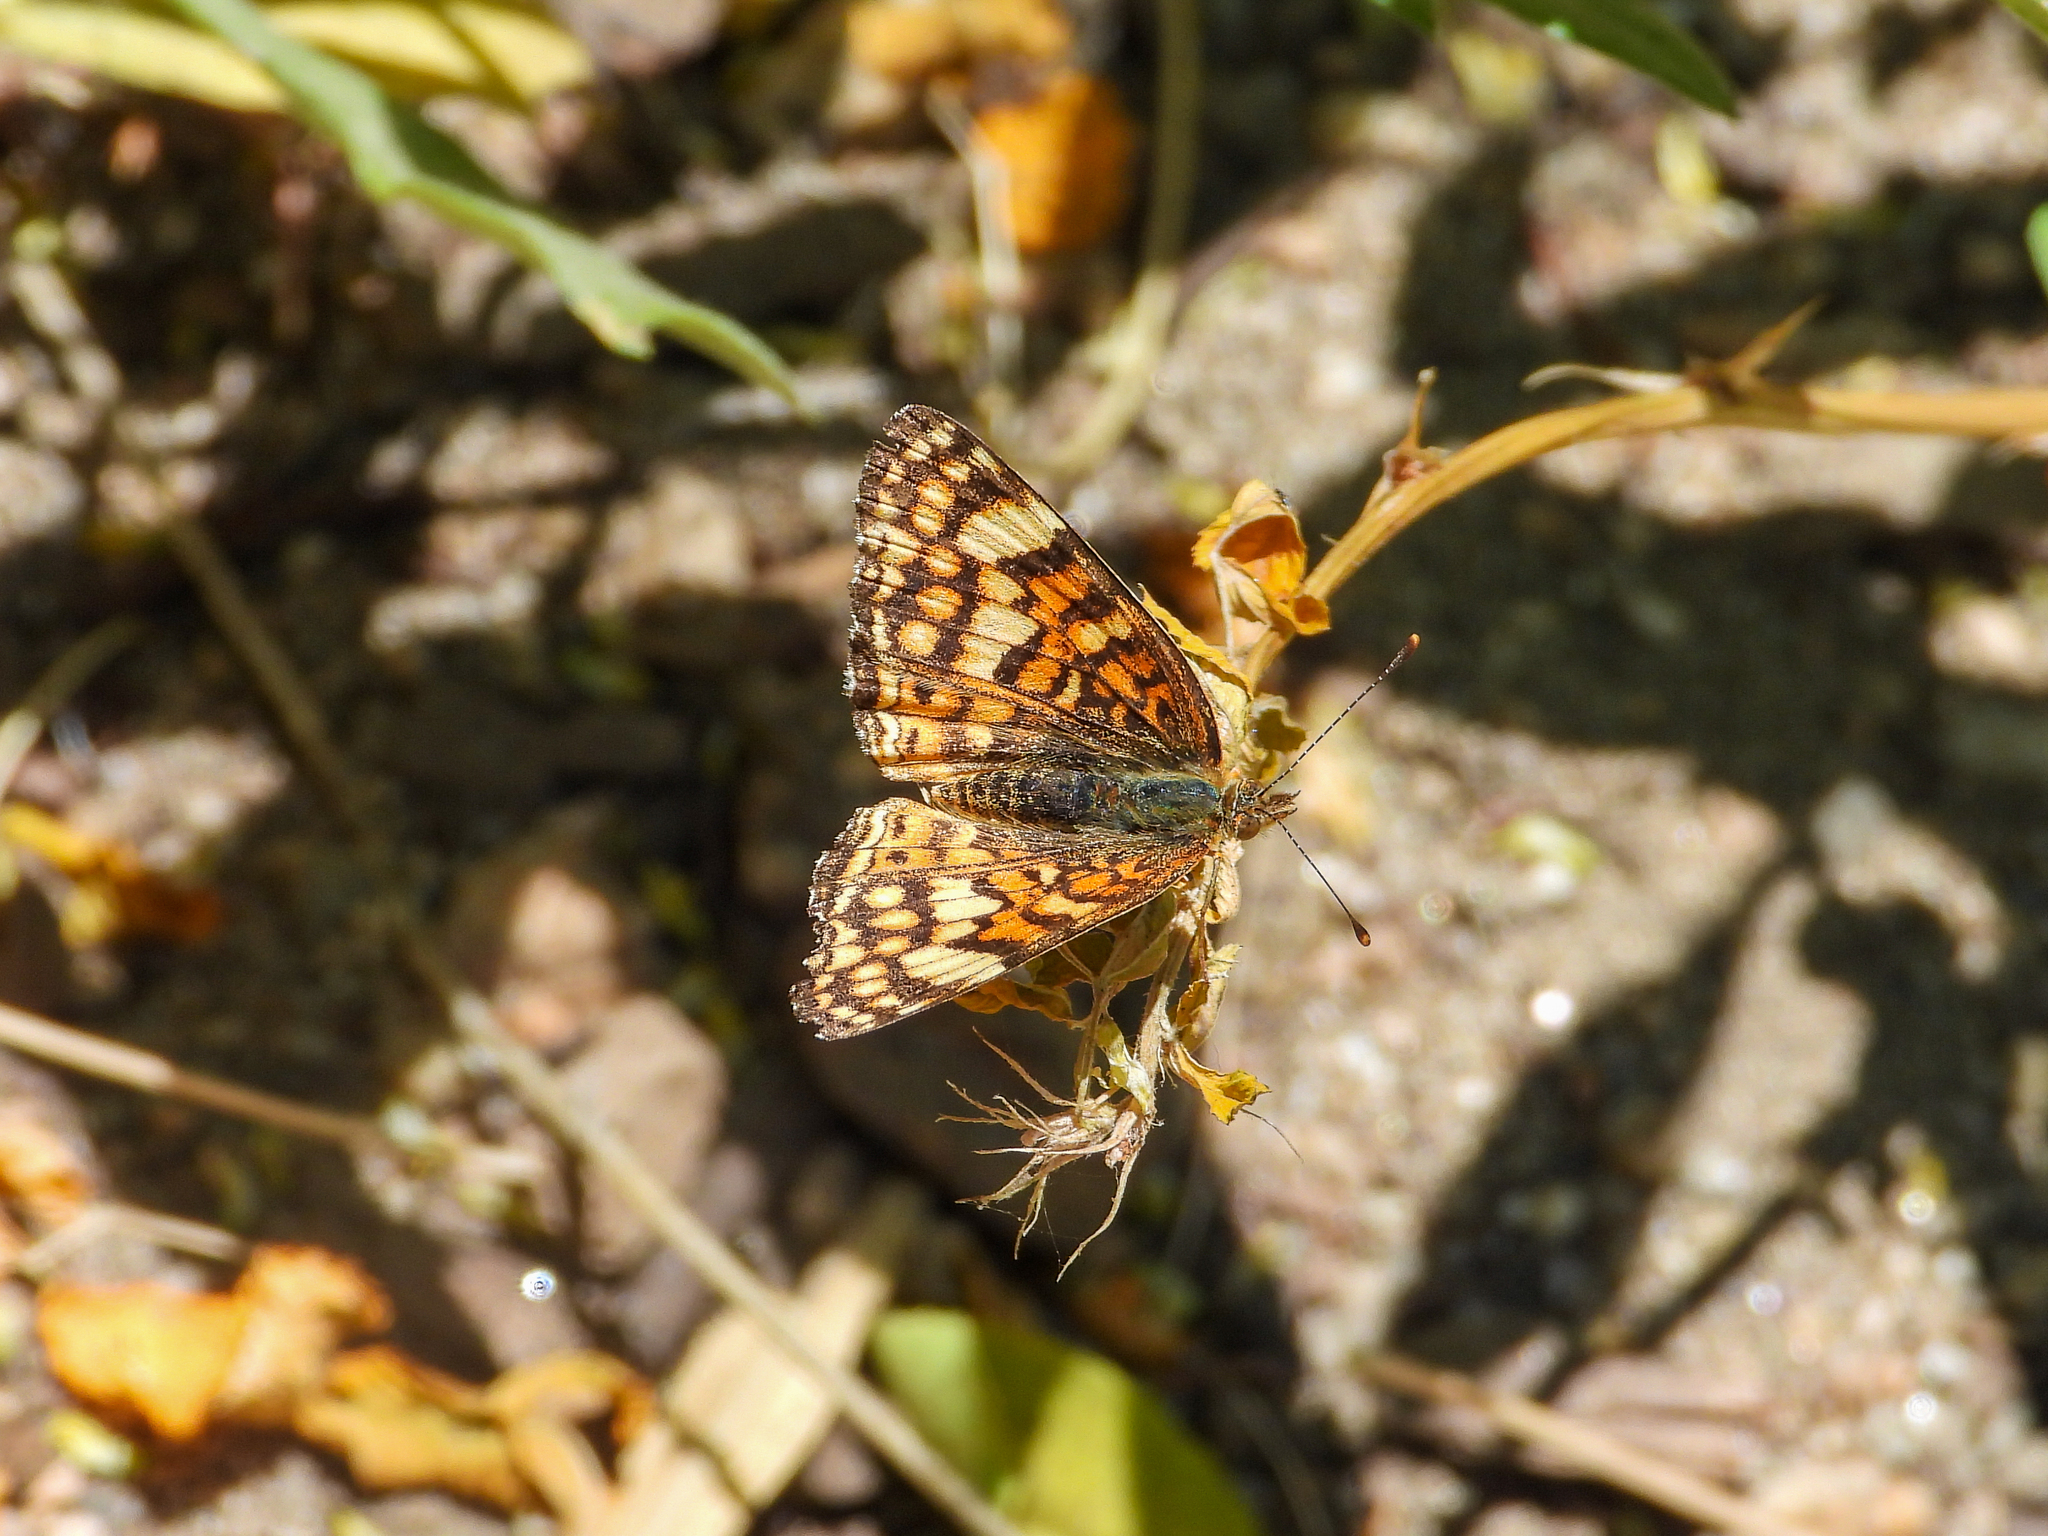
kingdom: Animalia
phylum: Arthropoda
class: Insecta
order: Lepidoptera
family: Nymphalidae
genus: Eresia
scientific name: Eresia aveyrona
